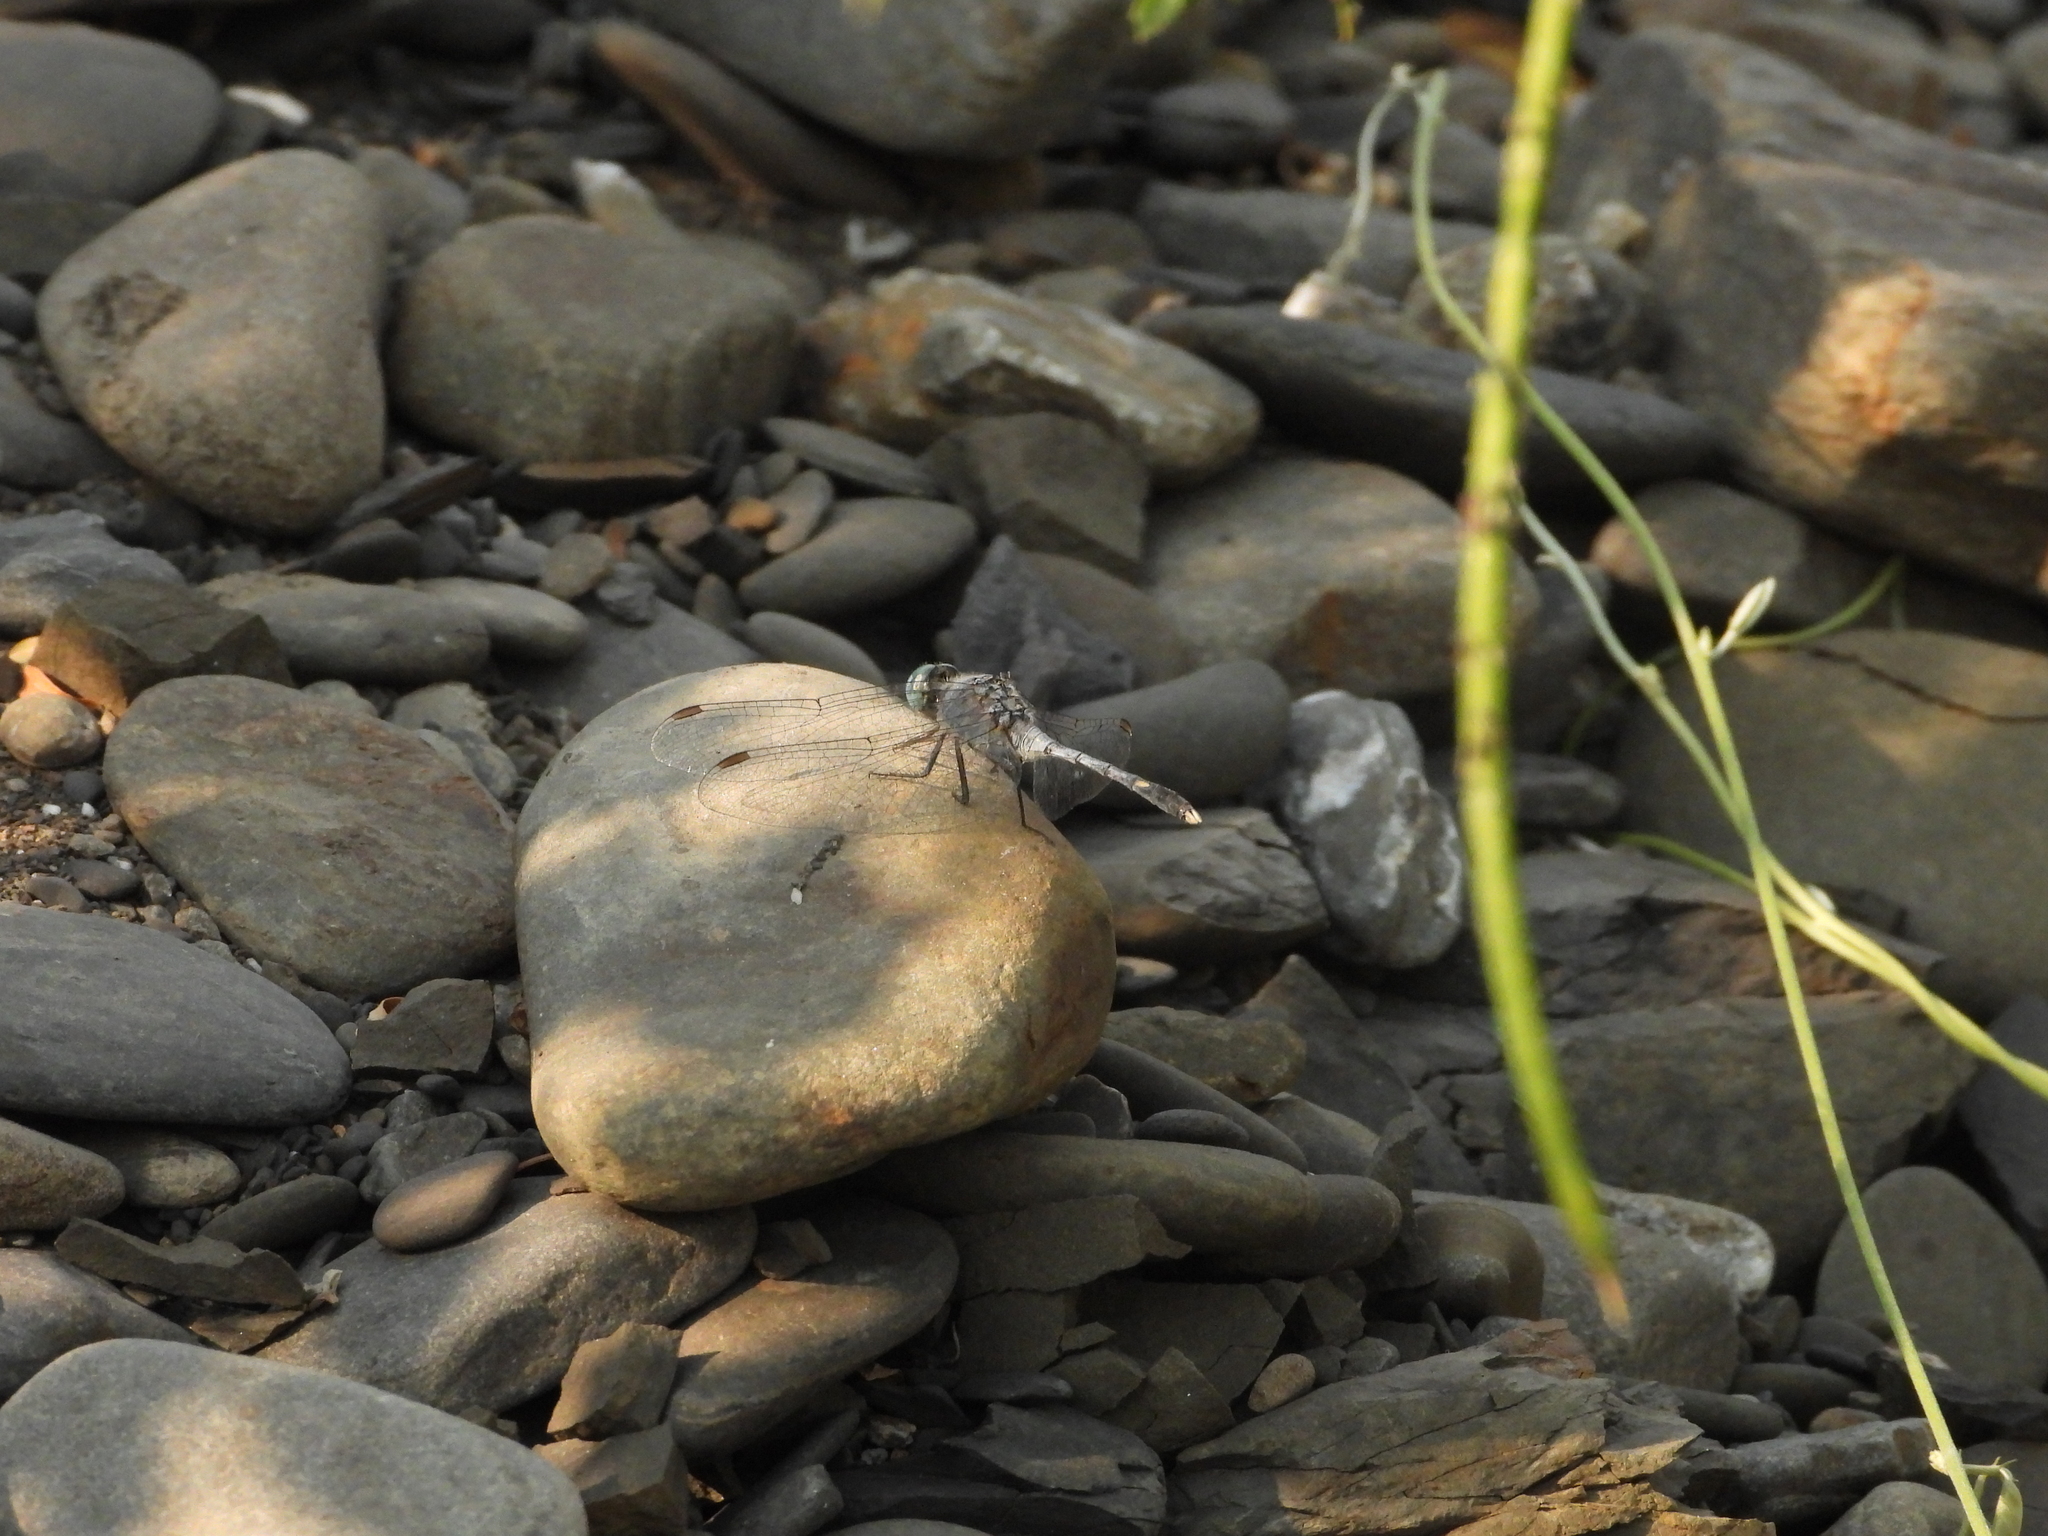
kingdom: Animalia
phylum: Arthropoda
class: Insecta
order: Odonata
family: Libellulidae
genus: Diplacodes
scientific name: Diplacodes trivialis
